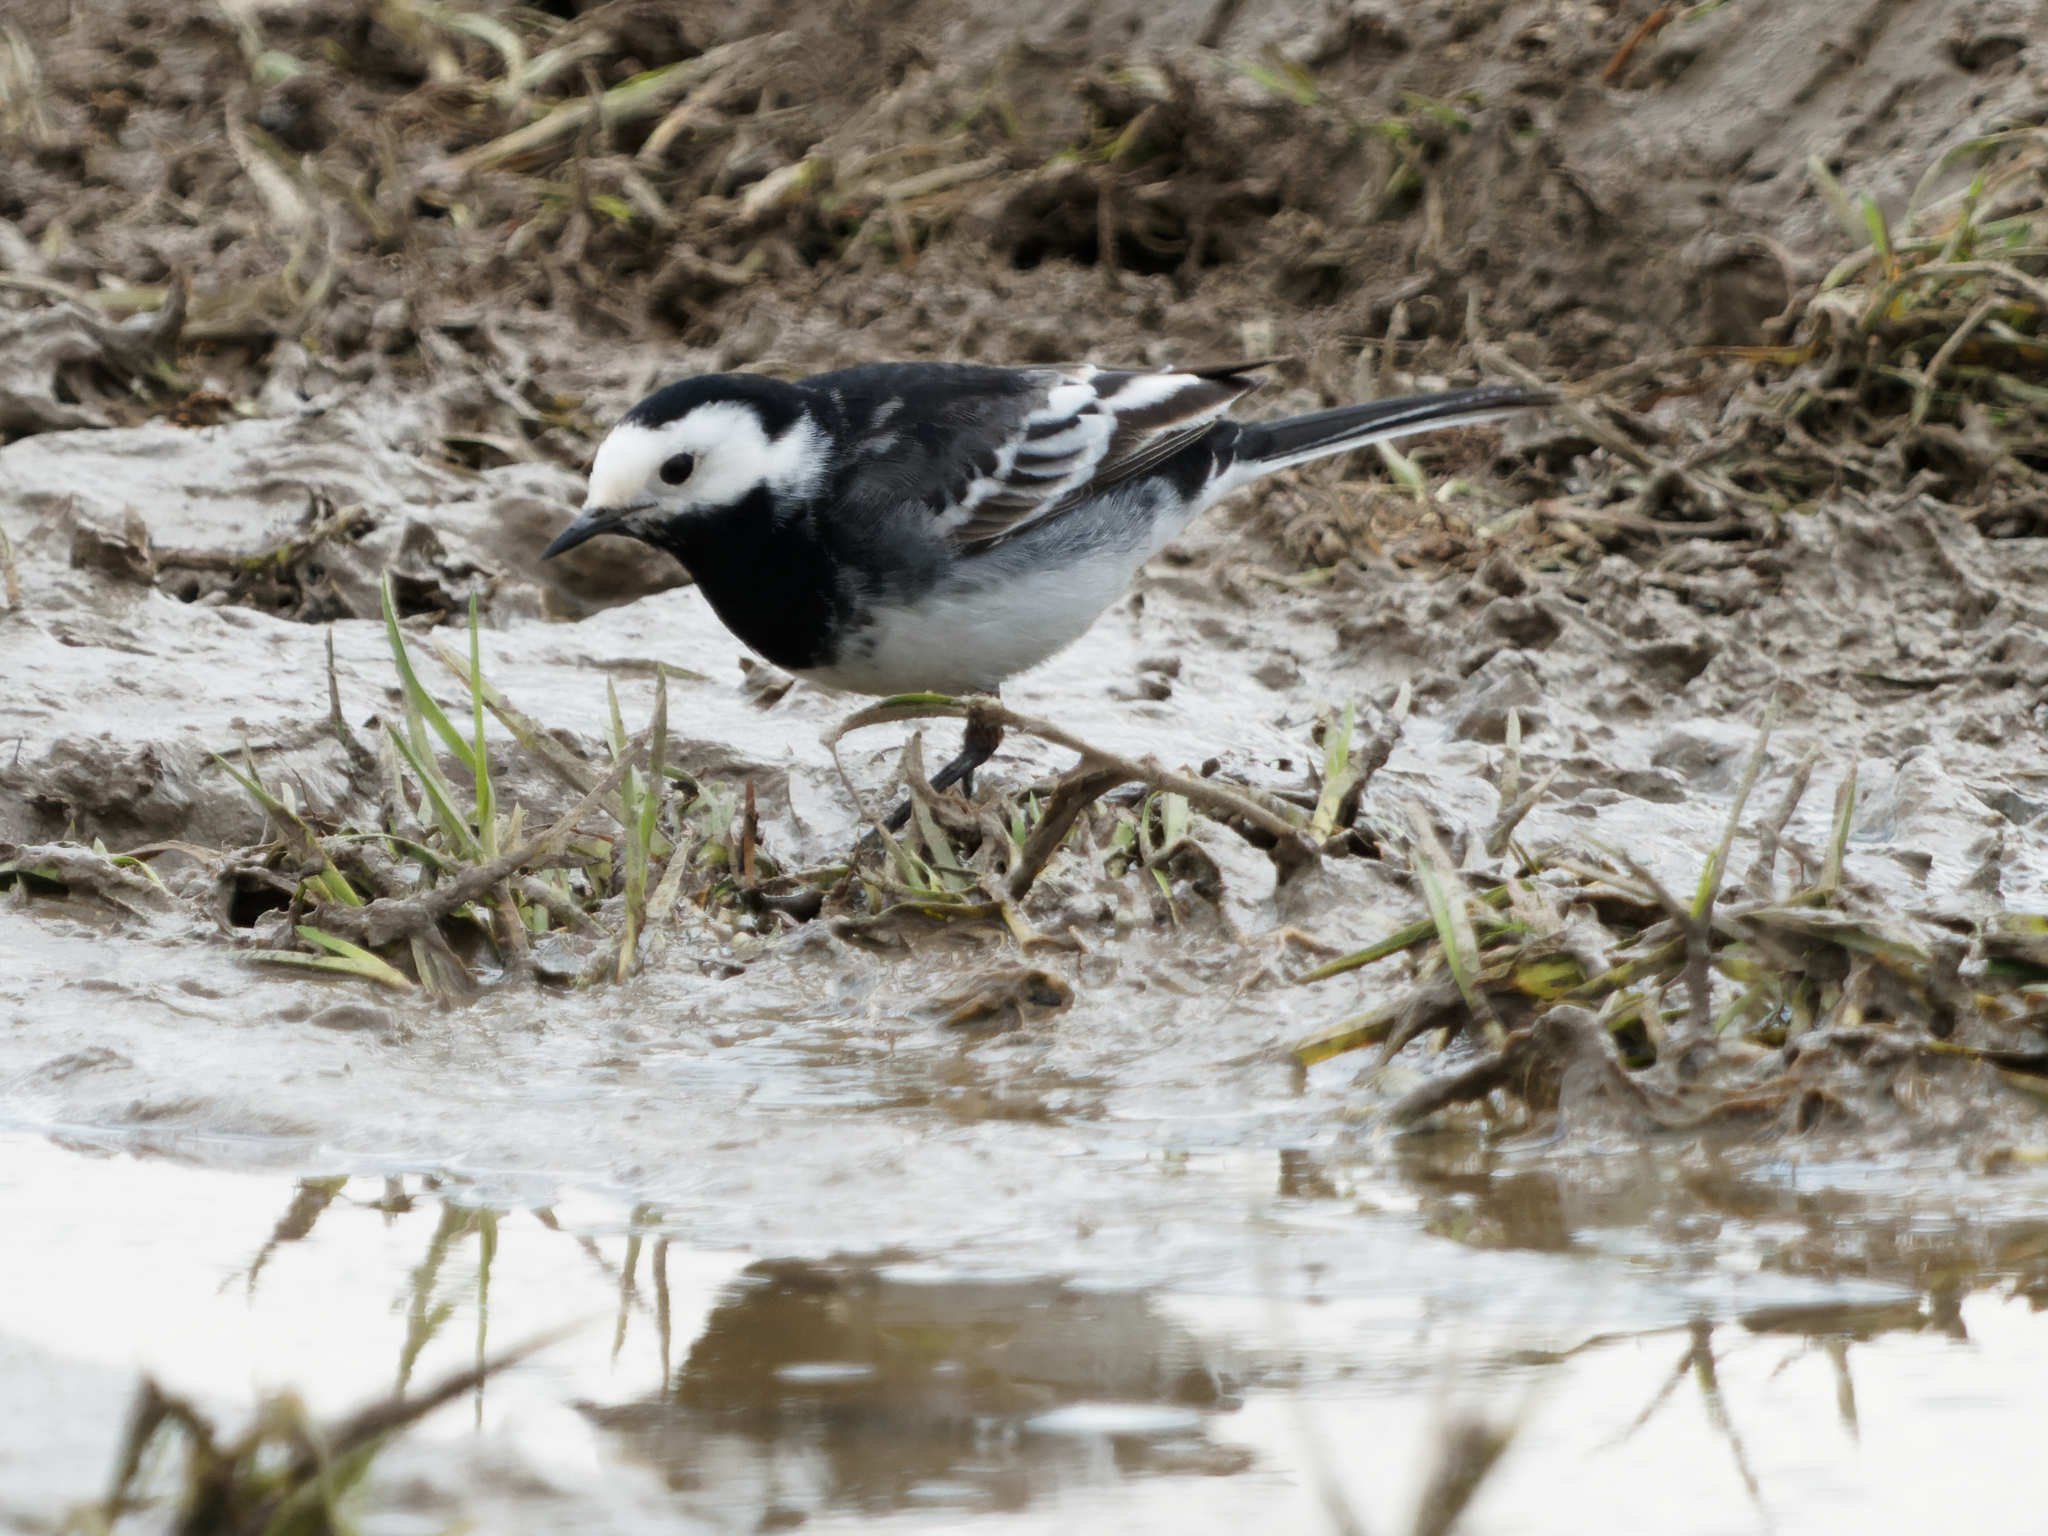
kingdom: Animalia
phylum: Chordata
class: Aves
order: Passeriformes
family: Motacillidae
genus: Motacilla
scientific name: Motacilla alba
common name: White wagtail
